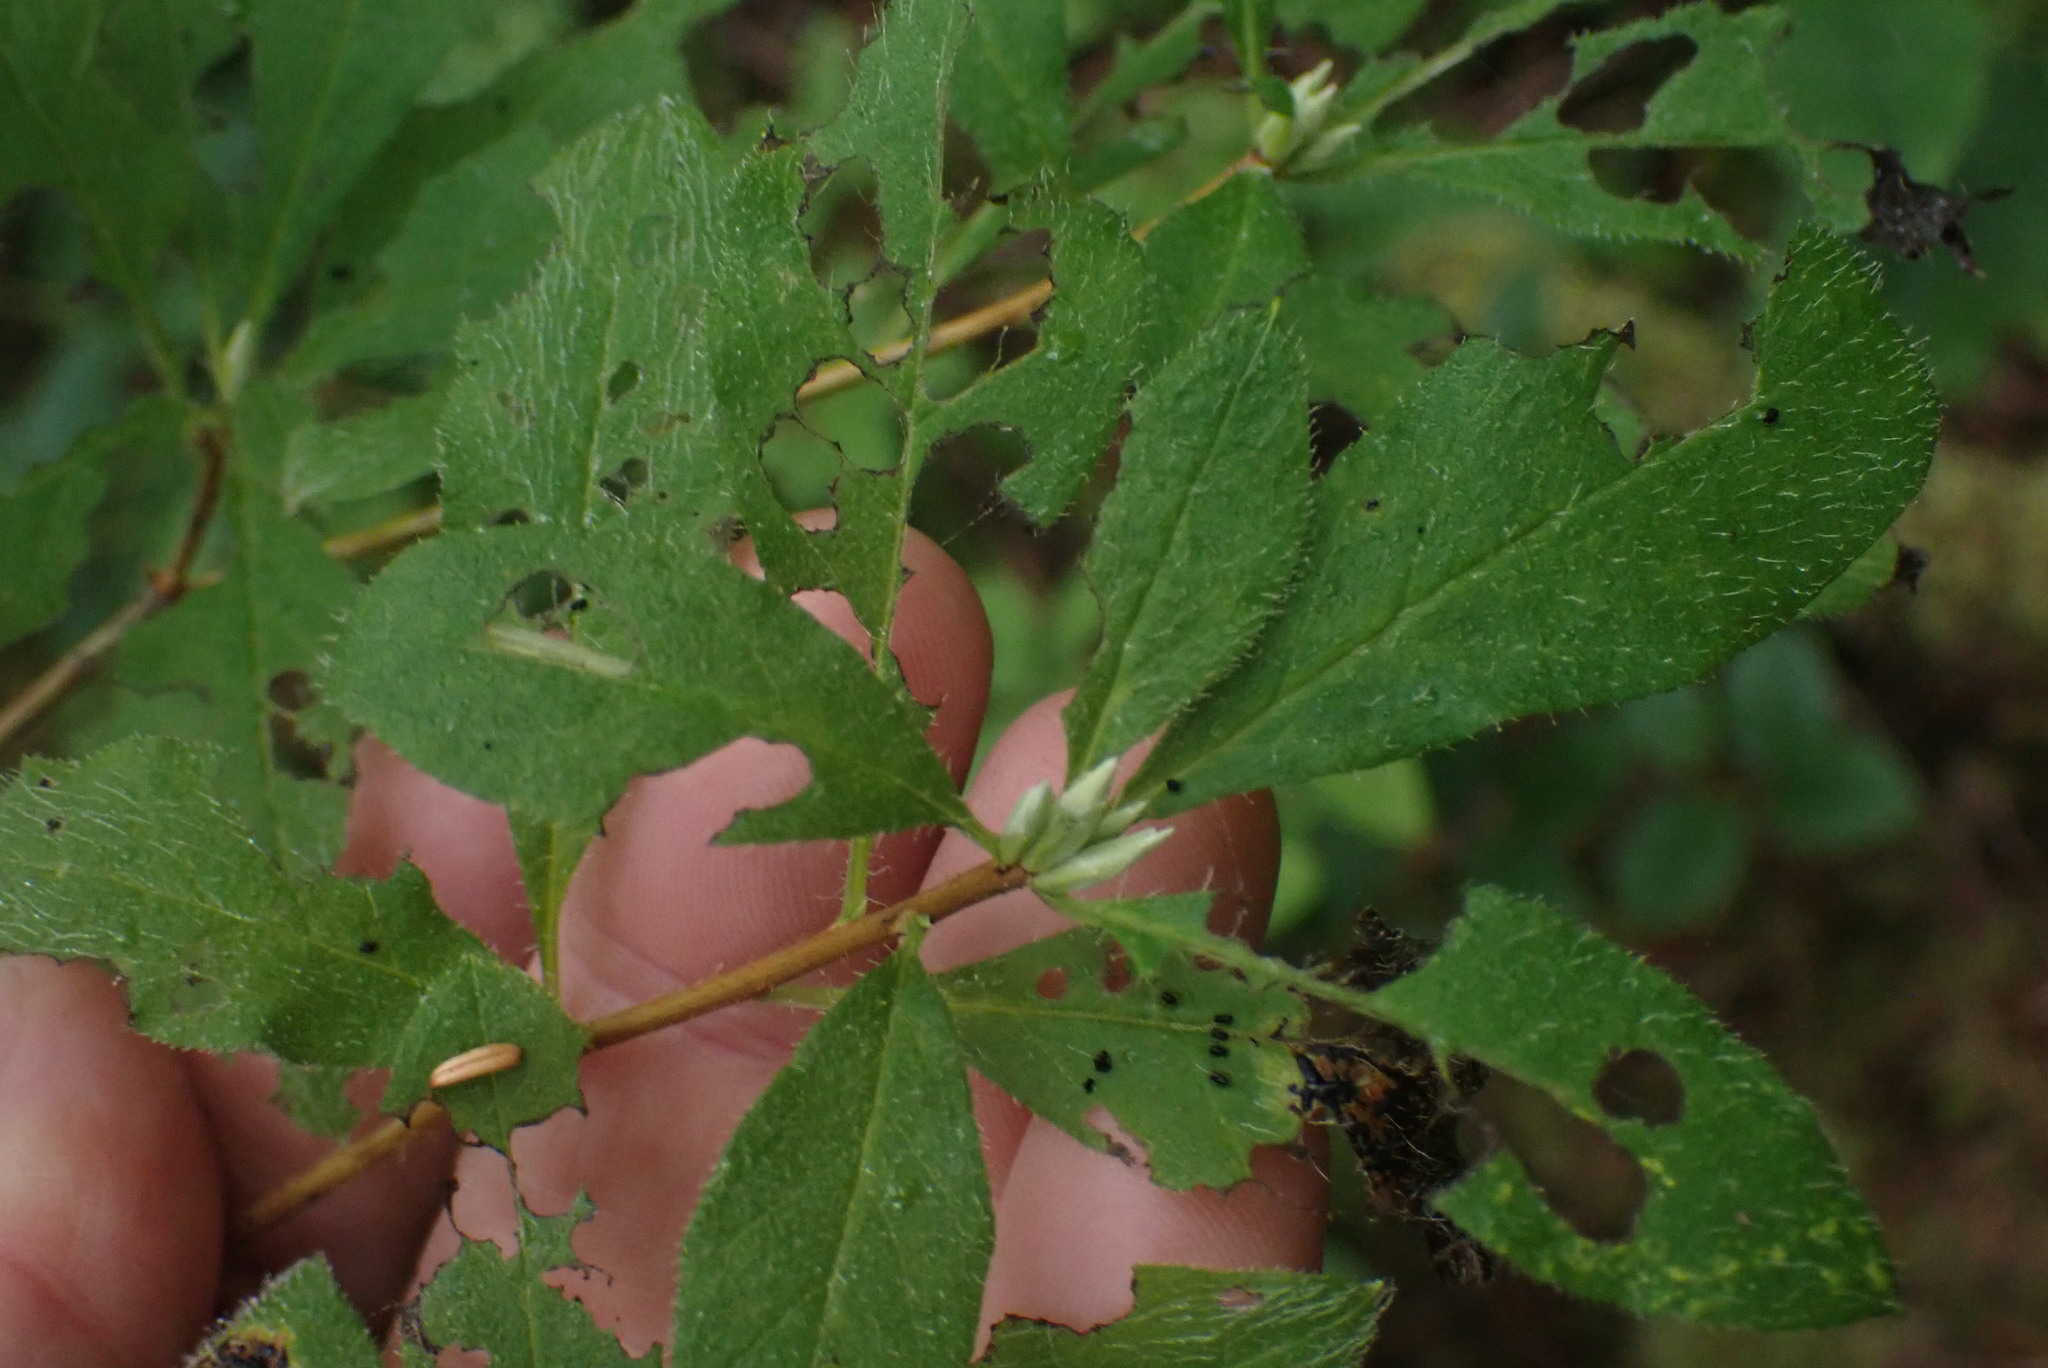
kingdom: Plantae
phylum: Tracheophyta
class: Magnoliopsida
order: Ericales
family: Ericaceae
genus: Rhododendron
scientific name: Rhododendron menziesii
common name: Pacific menziesia
